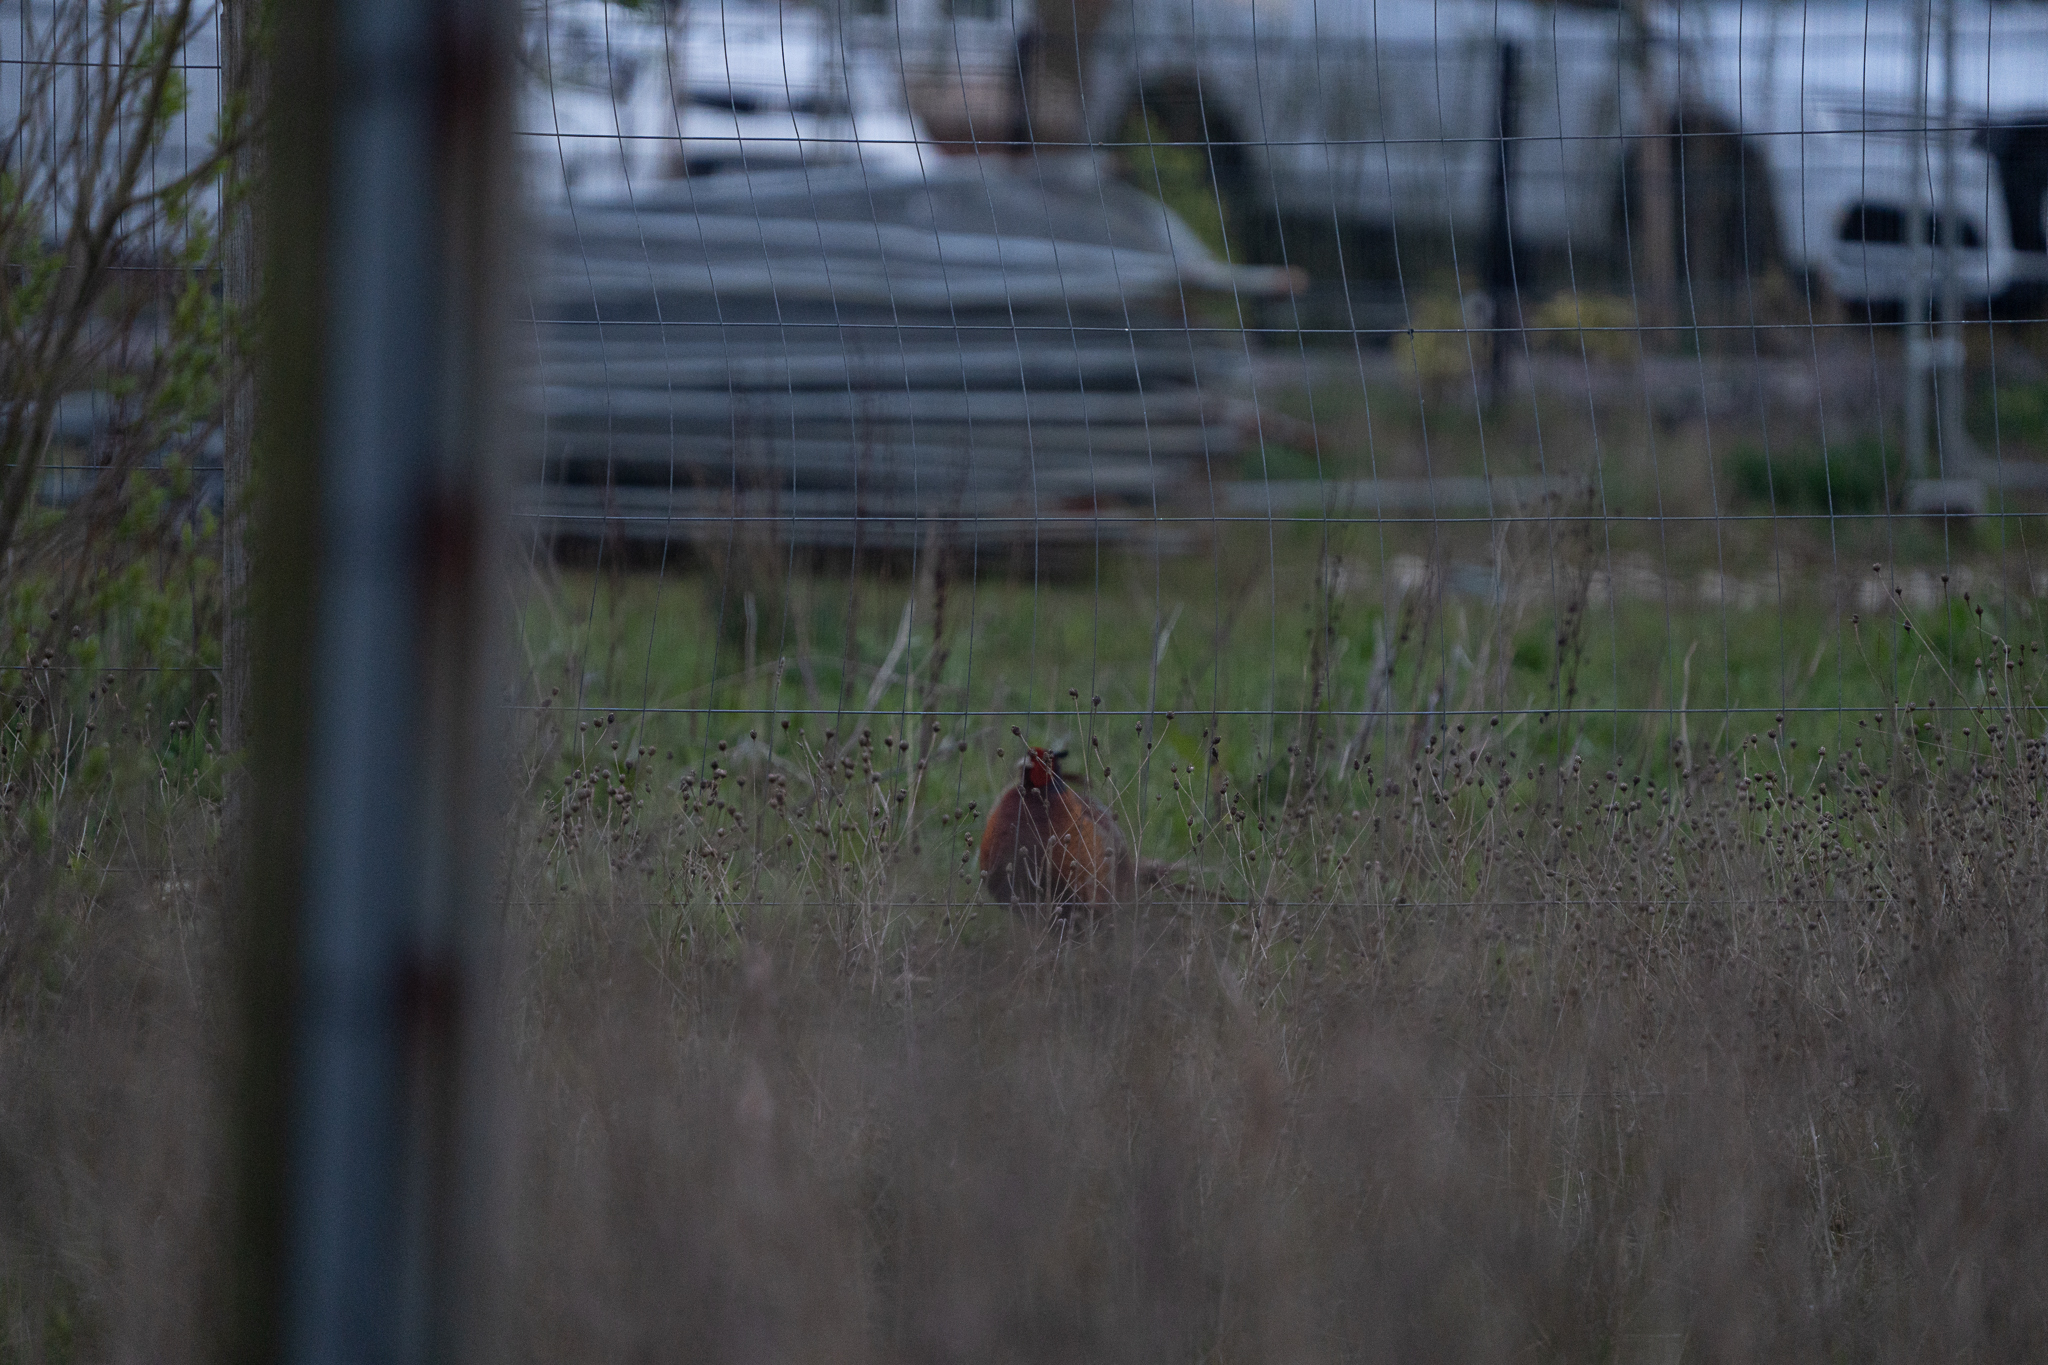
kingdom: Animalia
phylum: Chordata
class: Aves
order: Galliformes
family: Phasianidae
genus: Phasianus
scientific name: Phasianus colchicus
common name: Common pheasant
